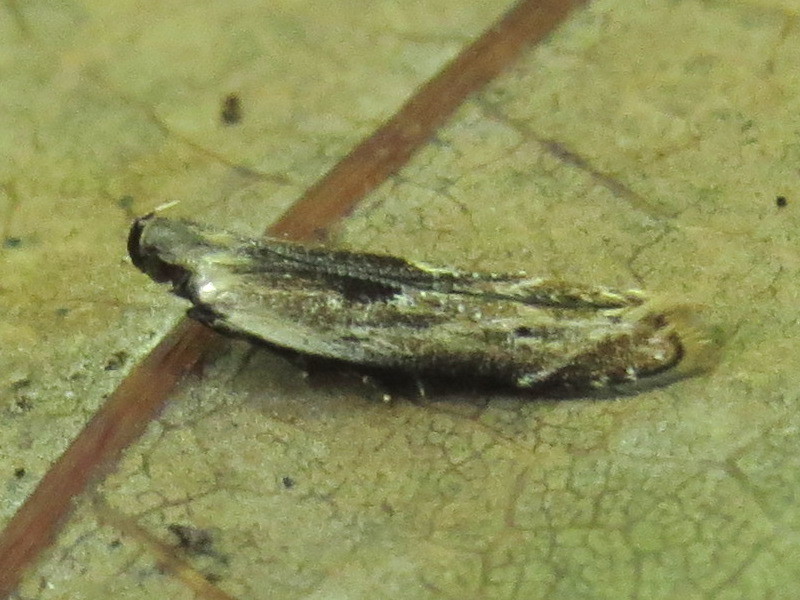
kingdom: Animalia
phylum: Arthropoda
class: Insecta
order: Lepidoptera
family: Gelechiidae
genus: Monochroa
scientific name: Monochroa gilvolinella
